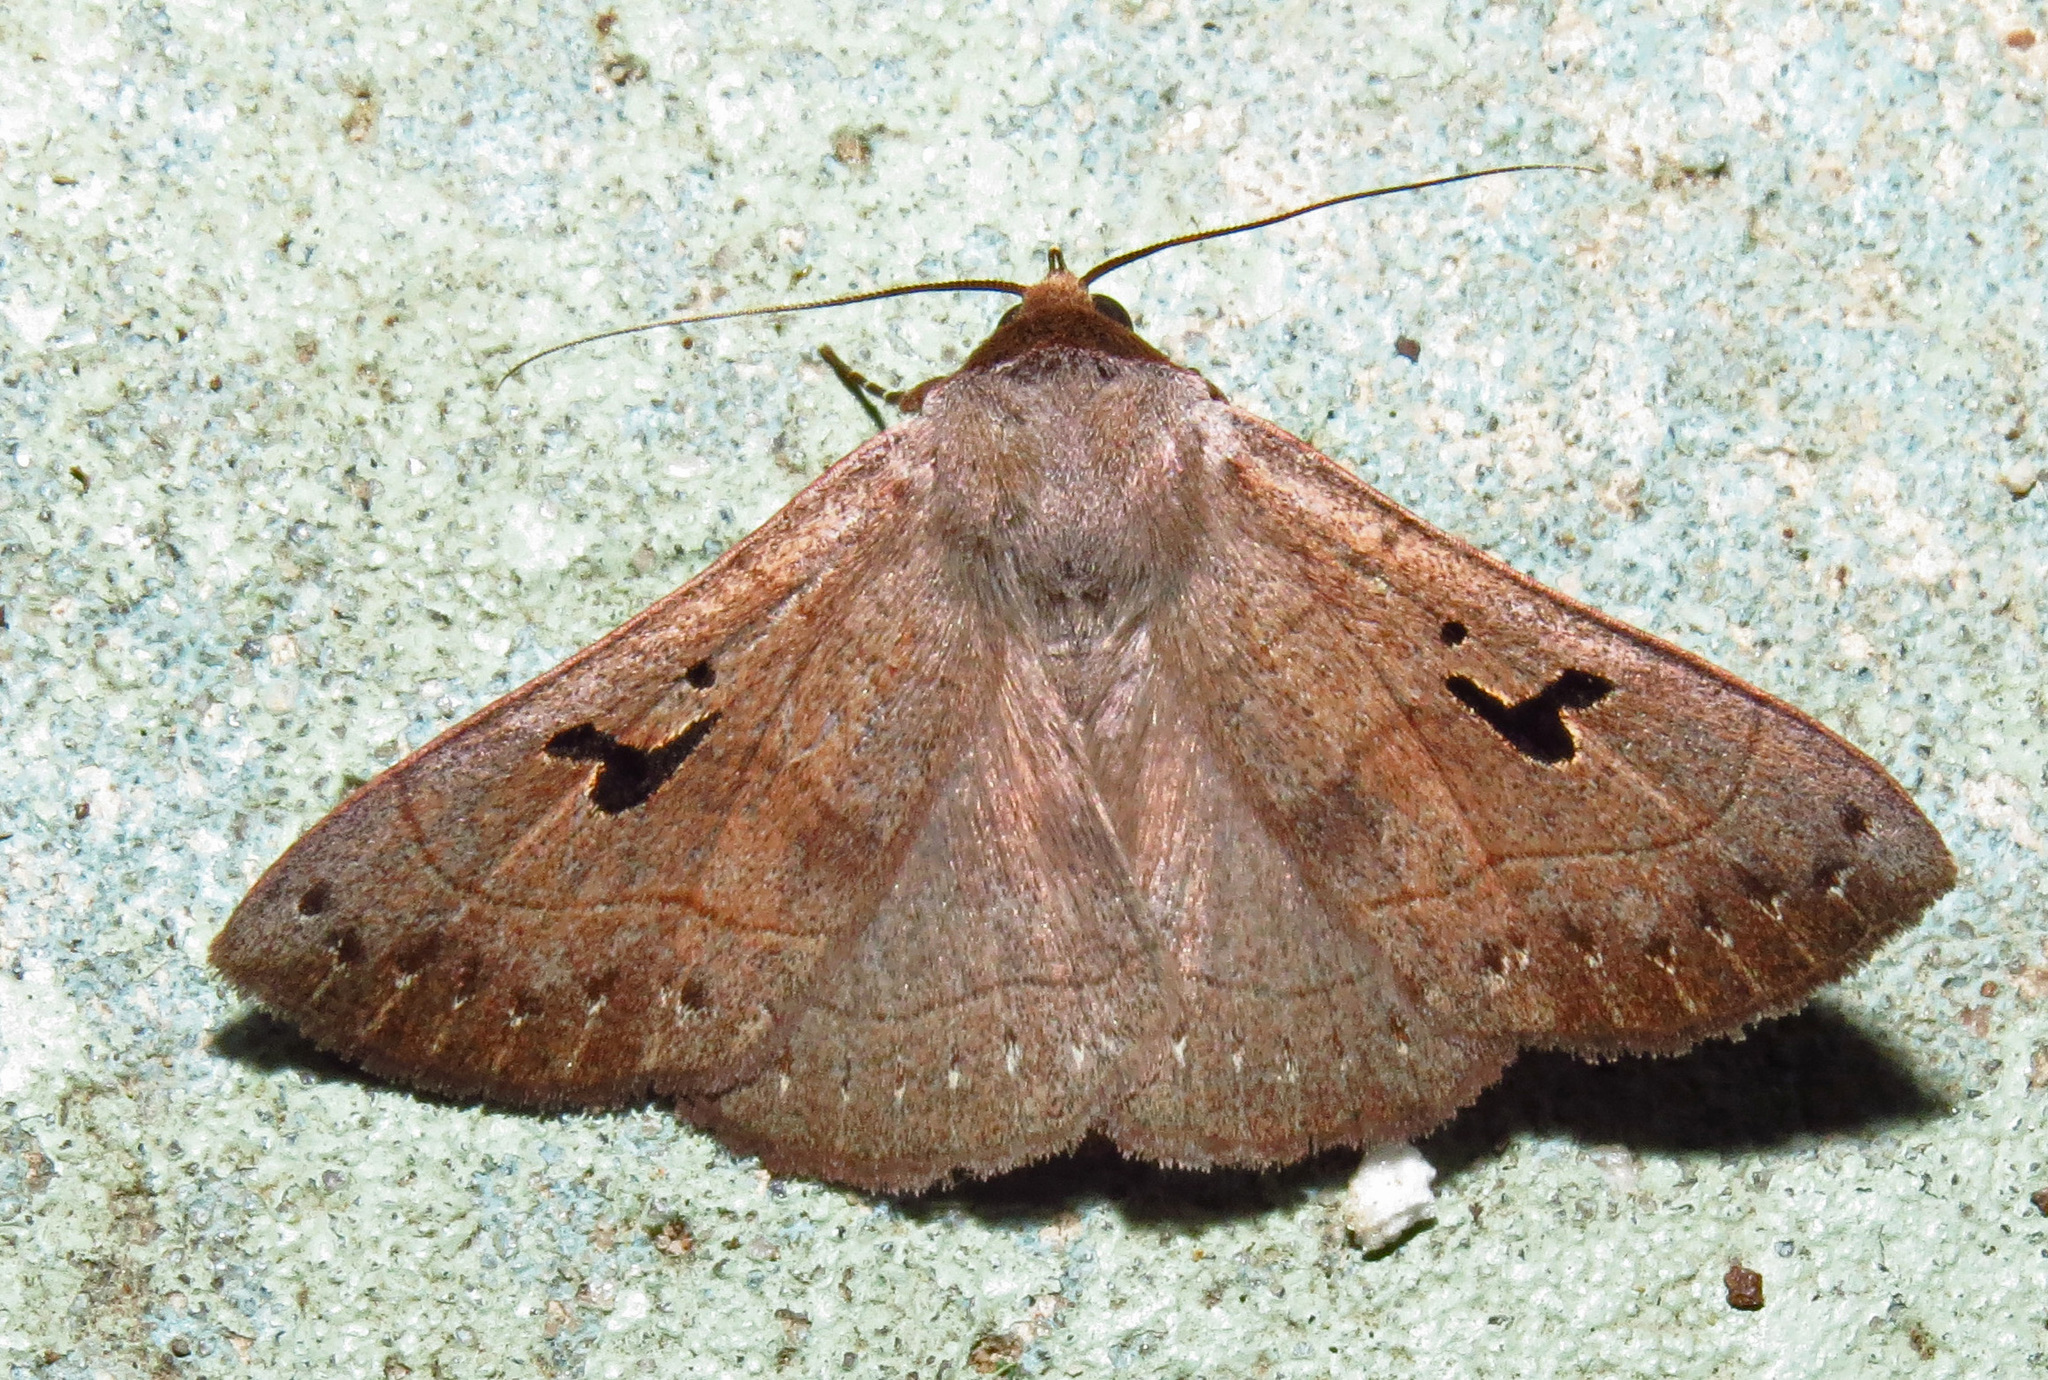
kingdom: Animalia
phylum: Arthropoda
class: Insecta
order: Lepidoptera
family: Erebidae
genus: Panopoda
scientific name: Panopoda carneicosta
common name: Brown panopoda moth
